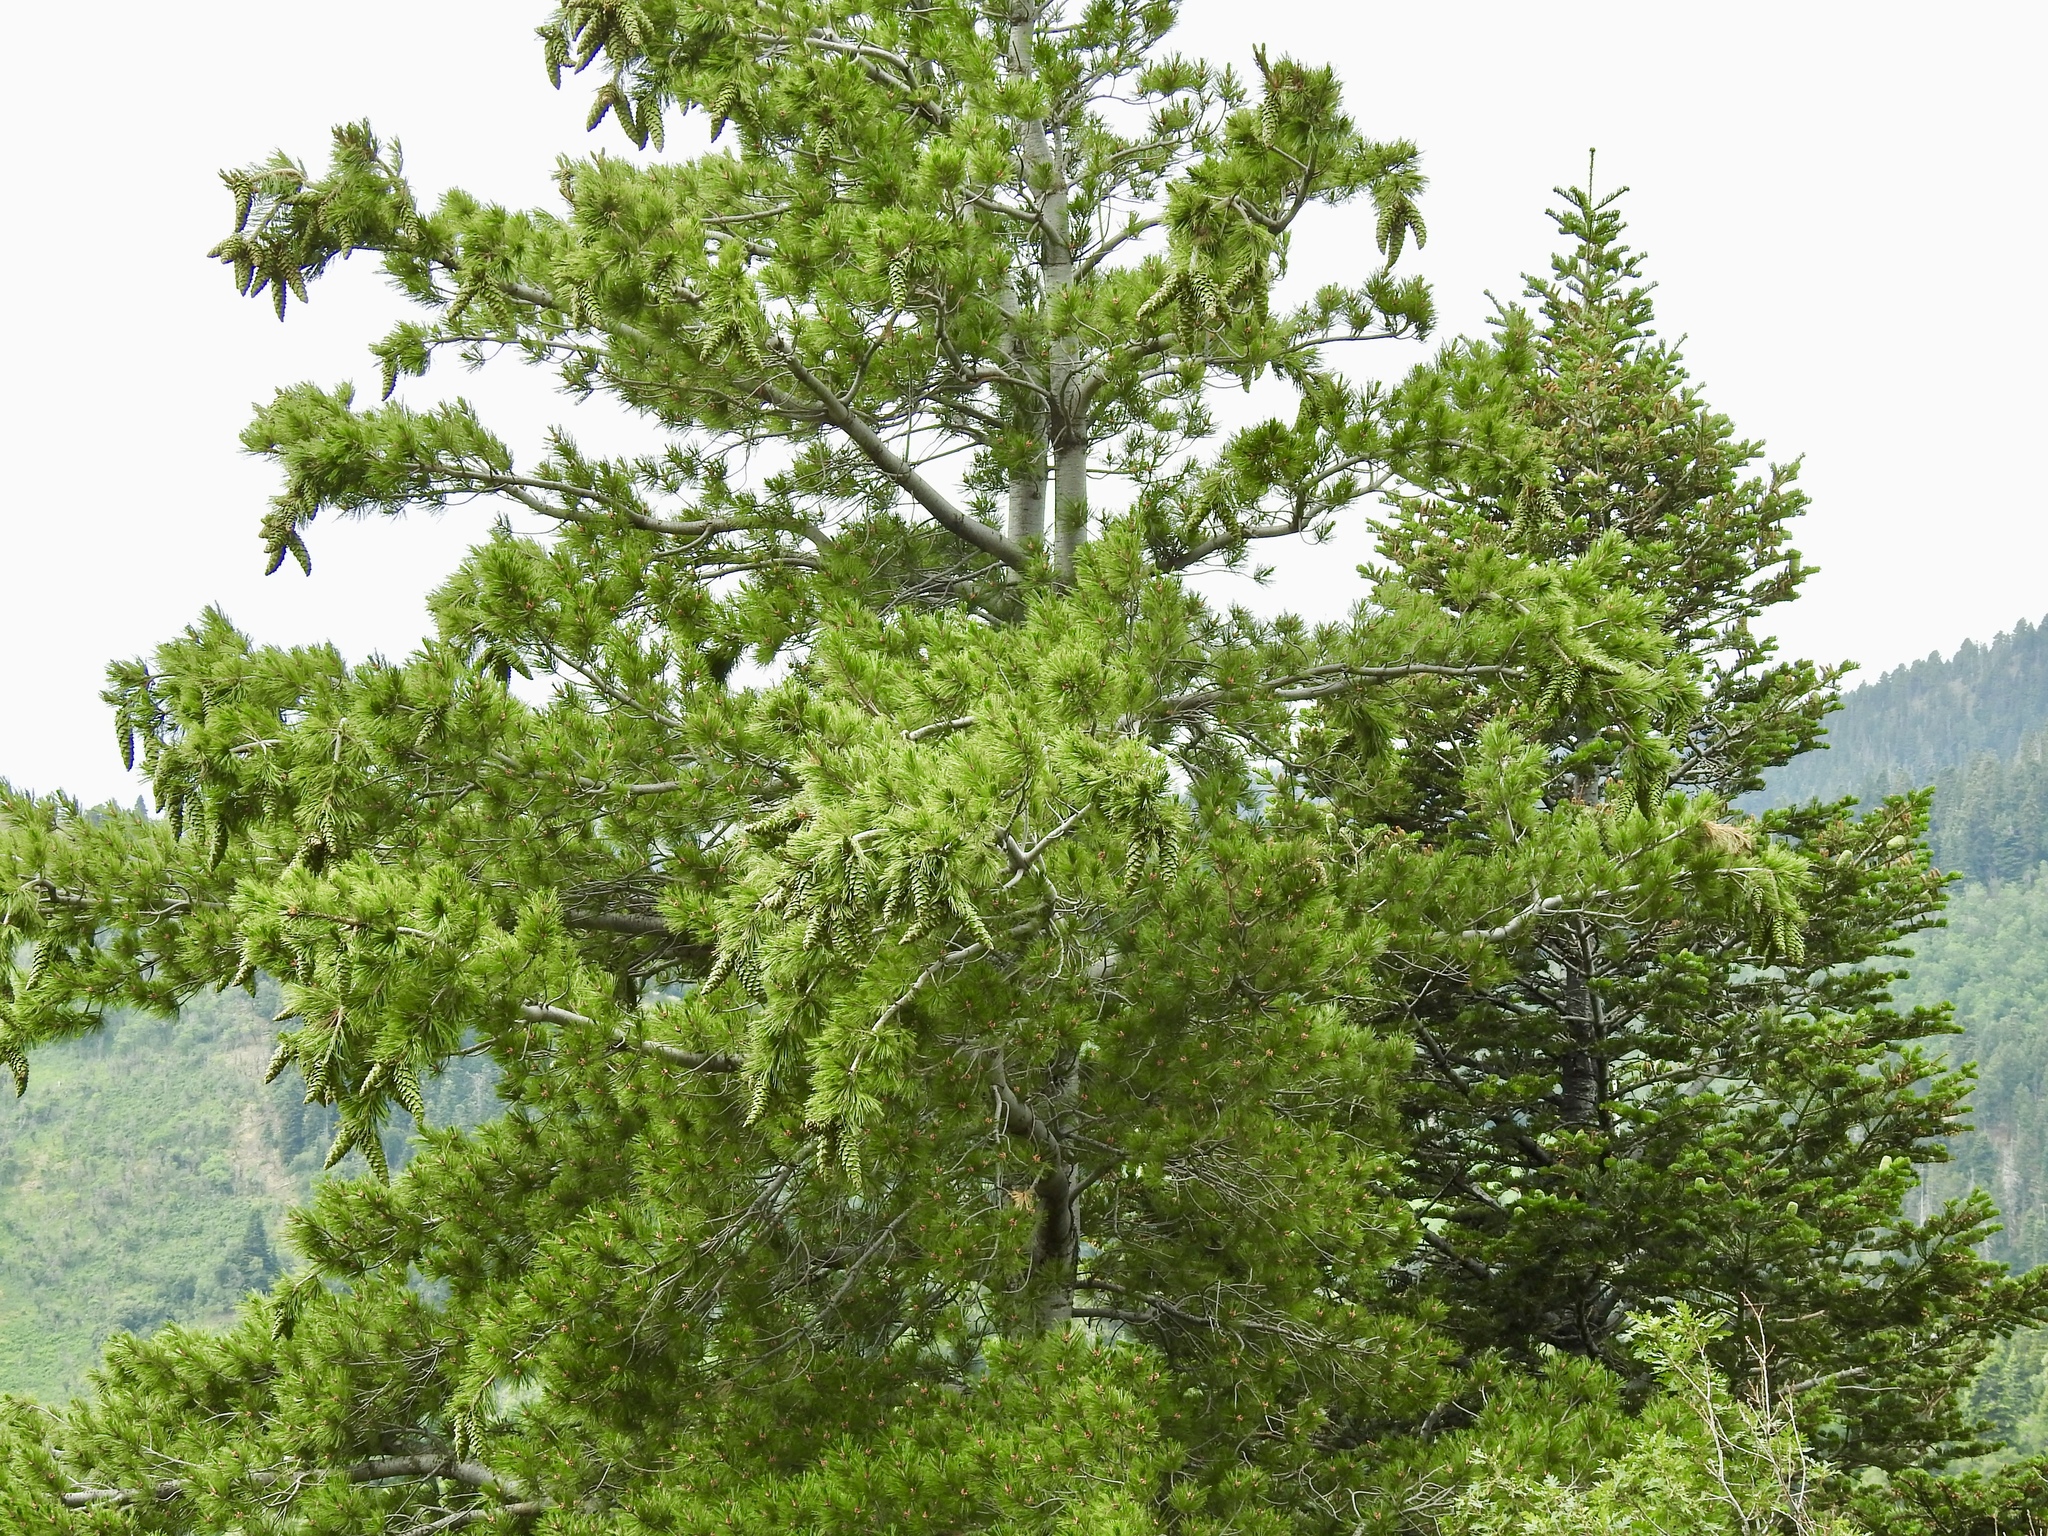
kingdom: Plantae
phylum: Tracheophyta
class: Pinopsida
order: Pinales
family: Pinaceae
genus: Pinus
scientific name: Pinus strobiformis
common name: Southwestern white pine
